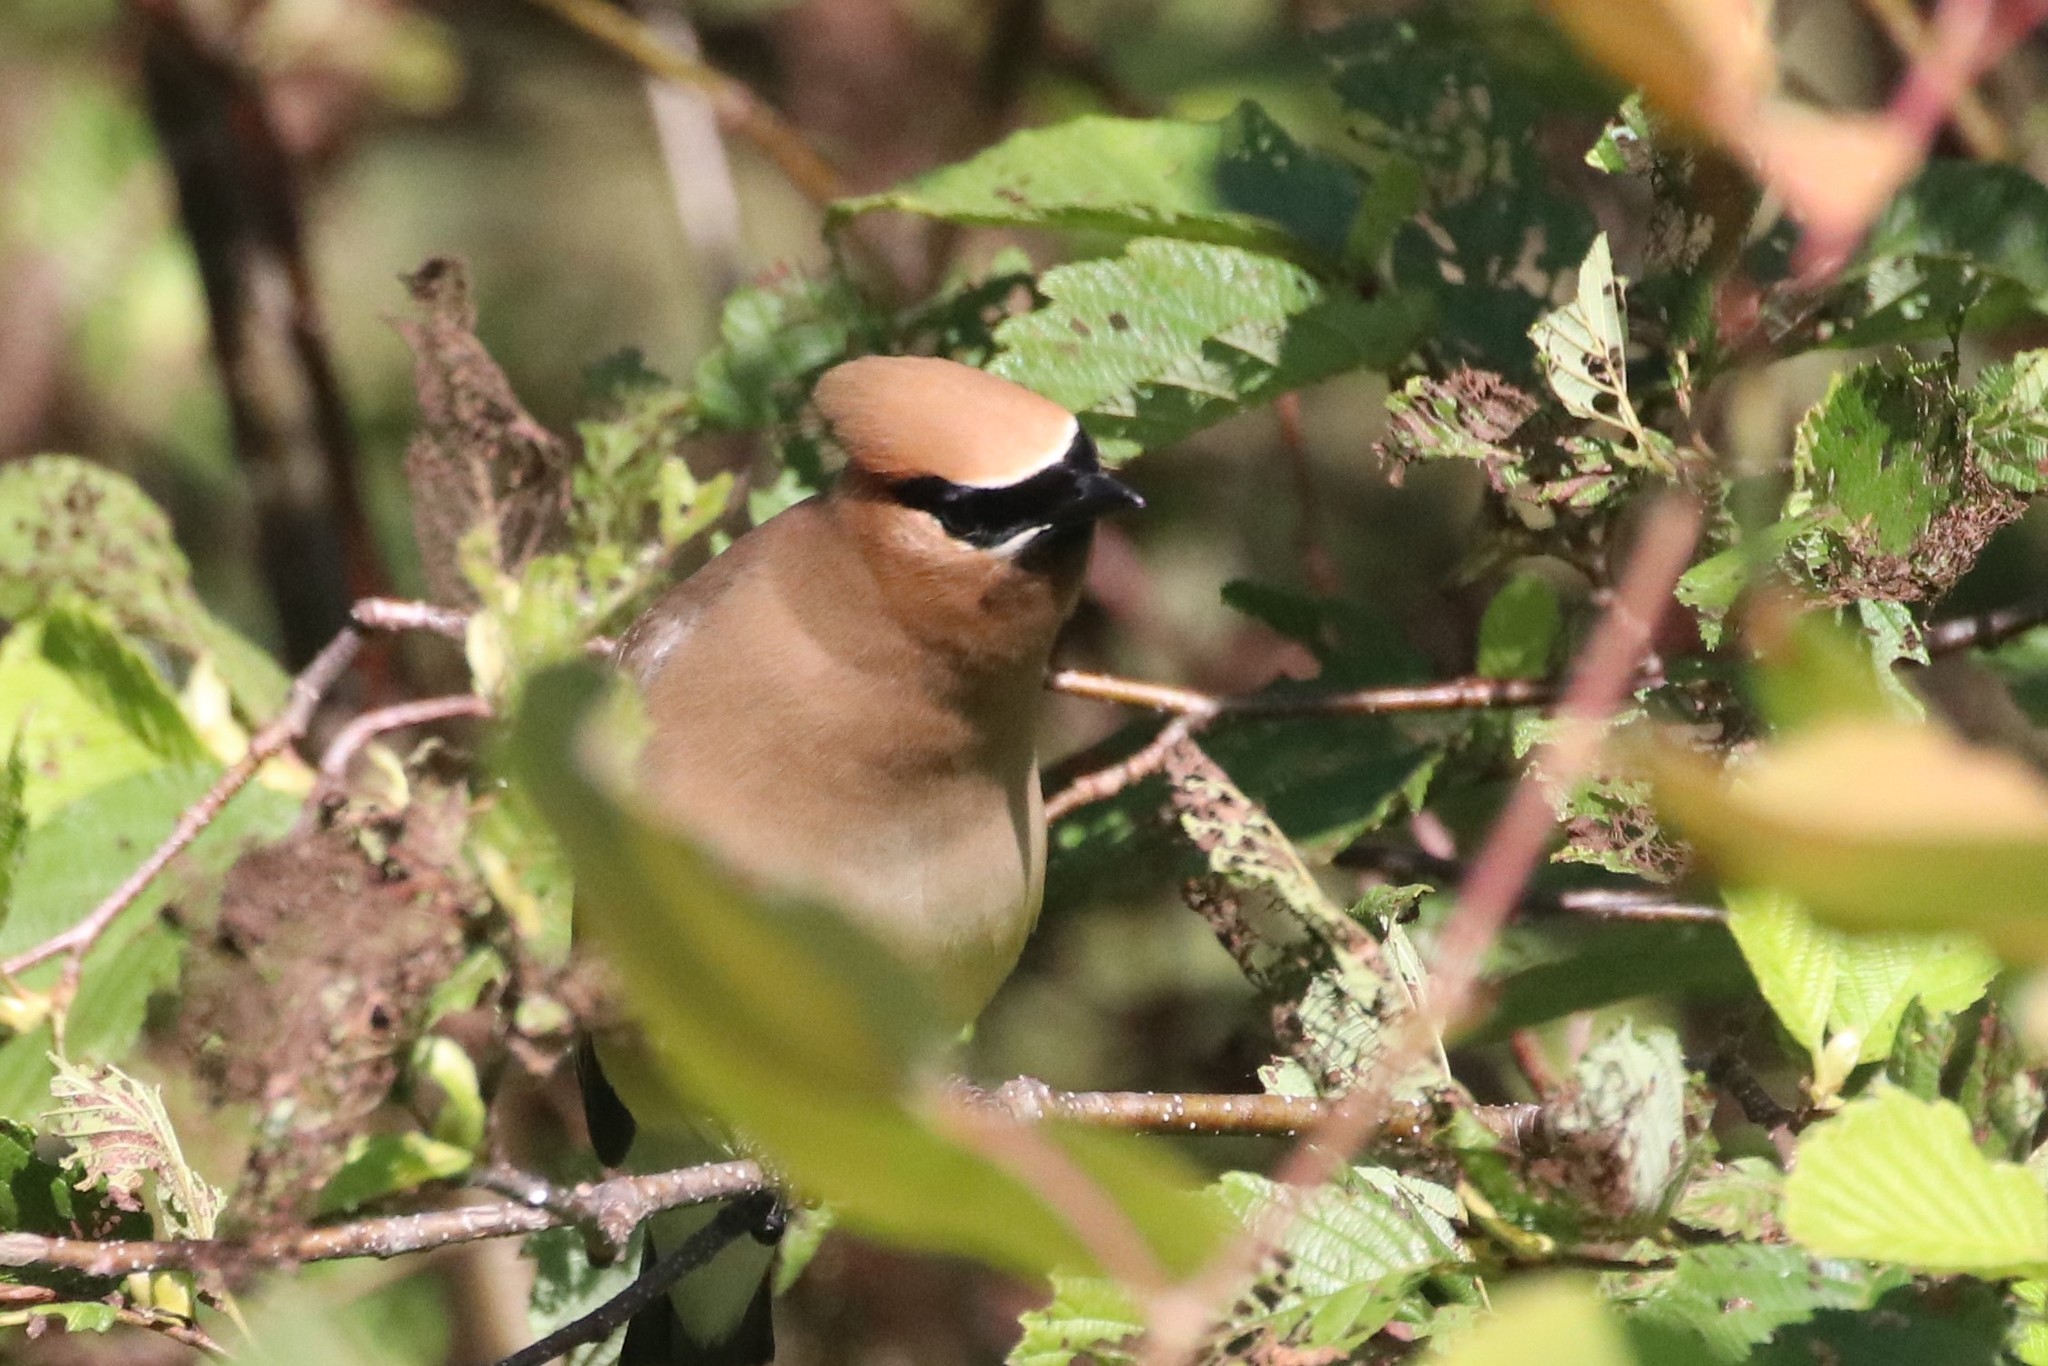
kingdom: Animalia
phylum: Chordata
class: Aves
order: Passeriformes
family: Bombycillidae
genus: Bombycilla
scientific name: Bombycilla cedrorum
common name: Cedar waxwing
